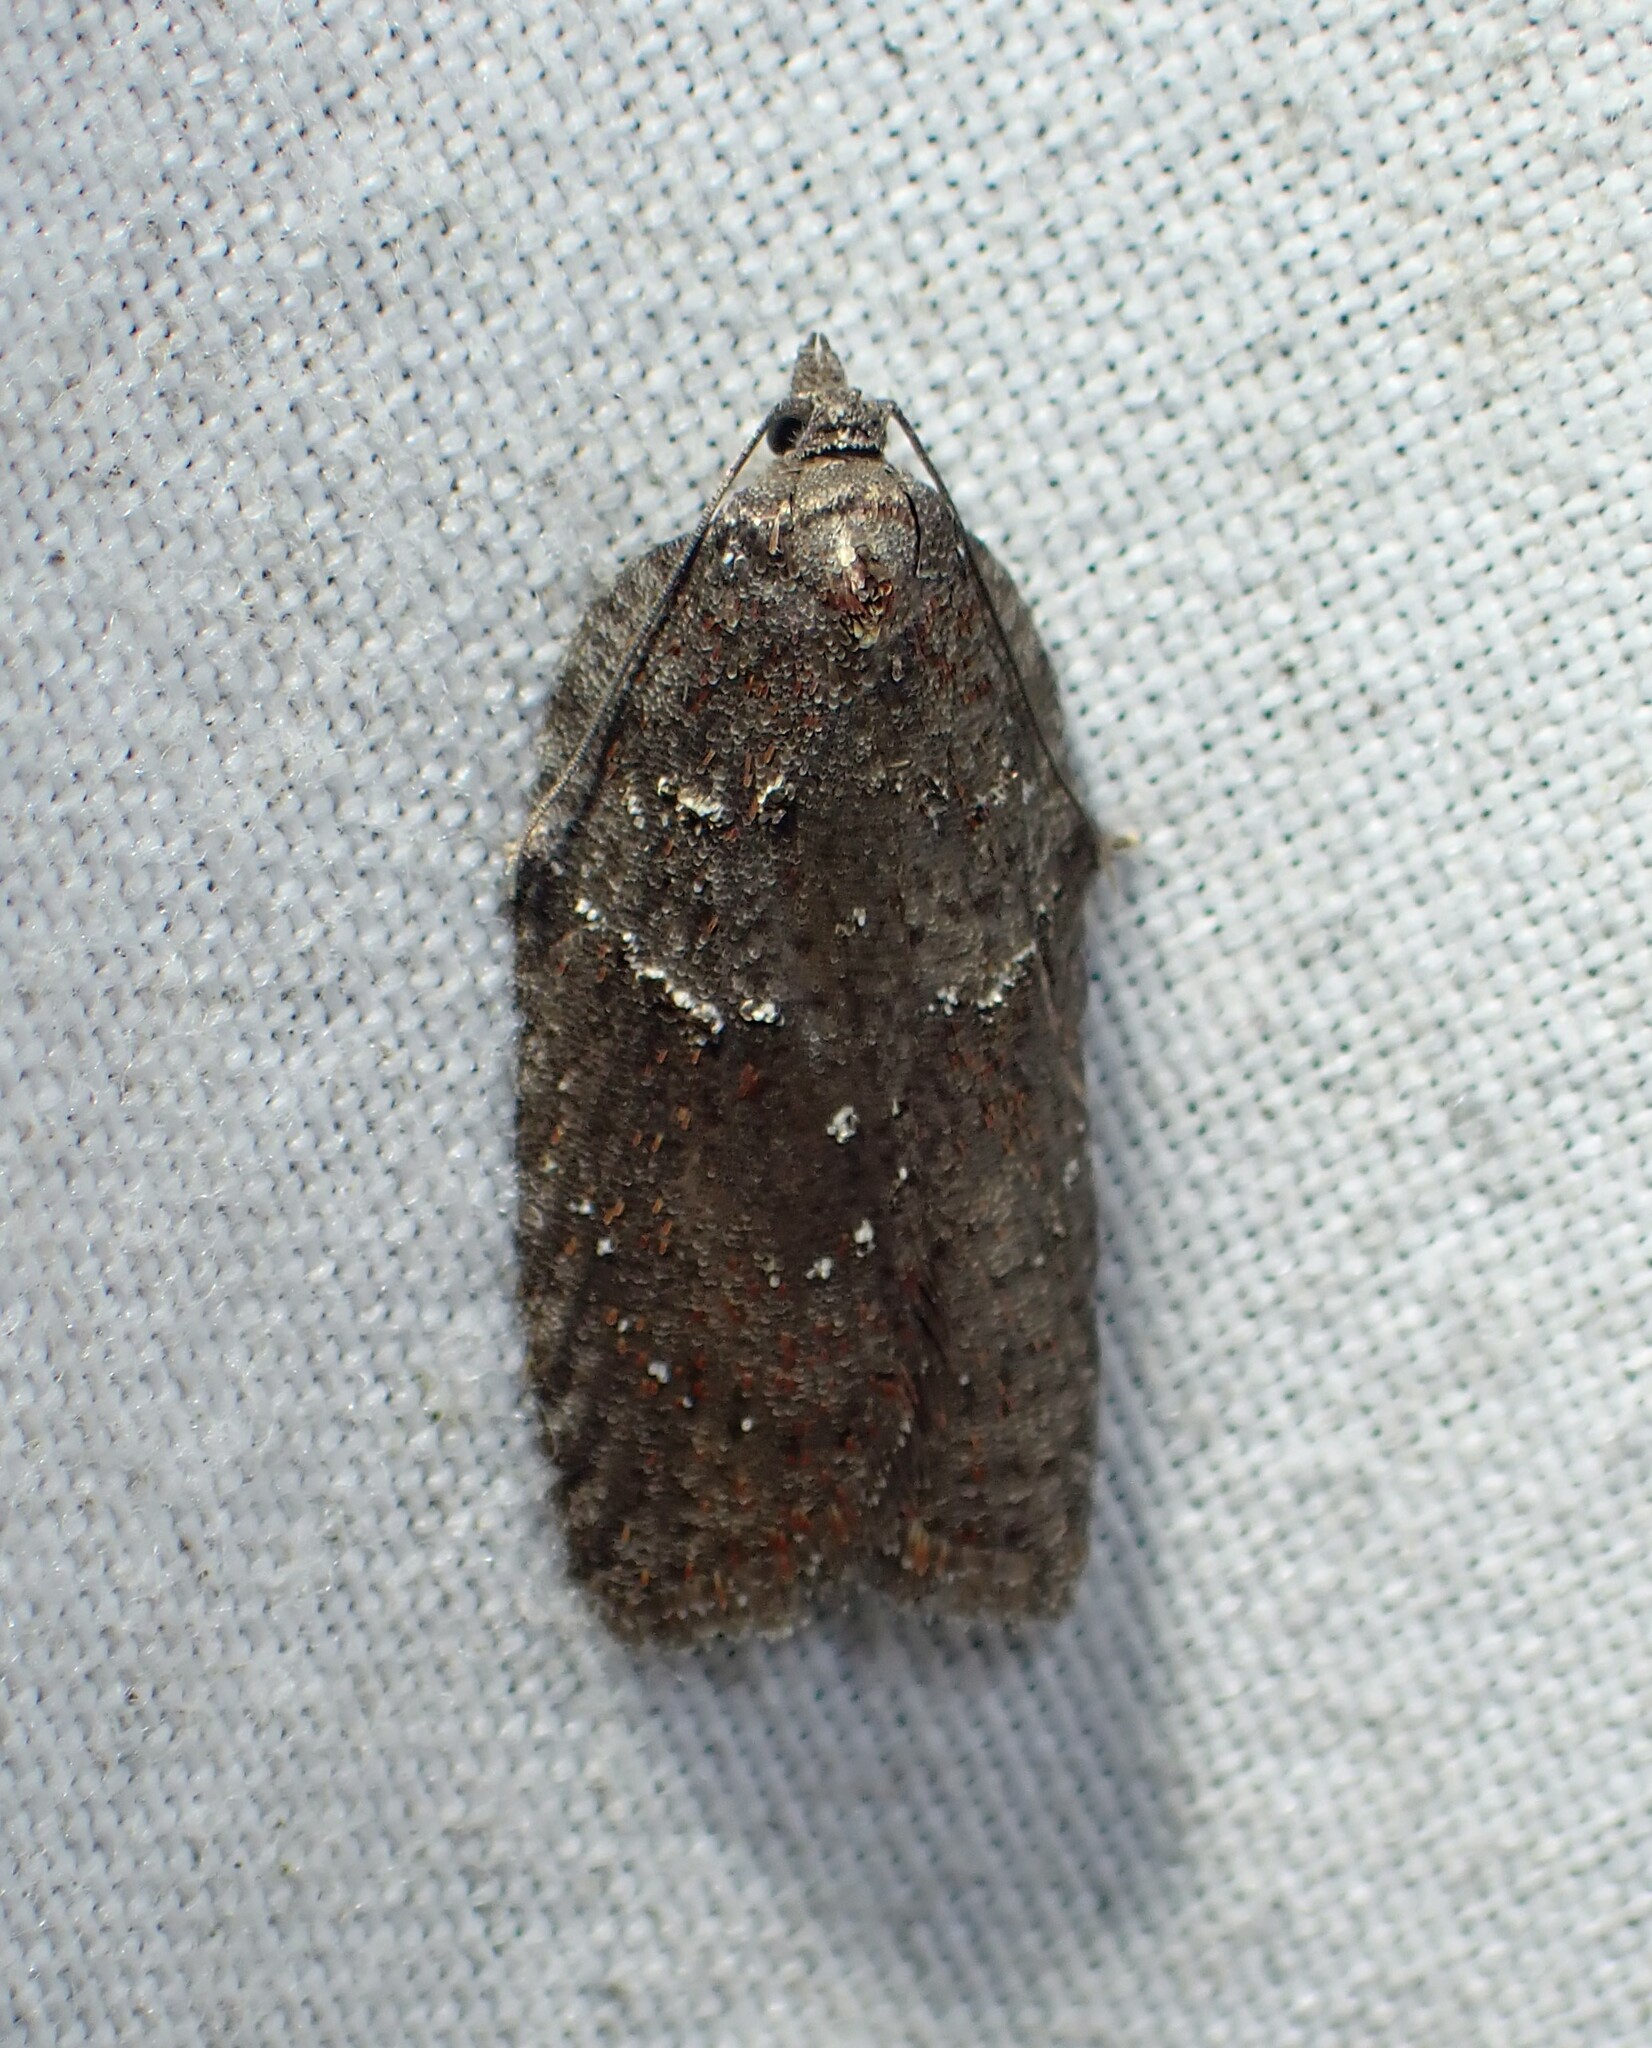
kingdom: Animalia
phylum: Arthropoda
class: Insecta
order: Lepidoptera
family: Tortricidae
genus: Acleris
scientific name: Acleris caliginosana
